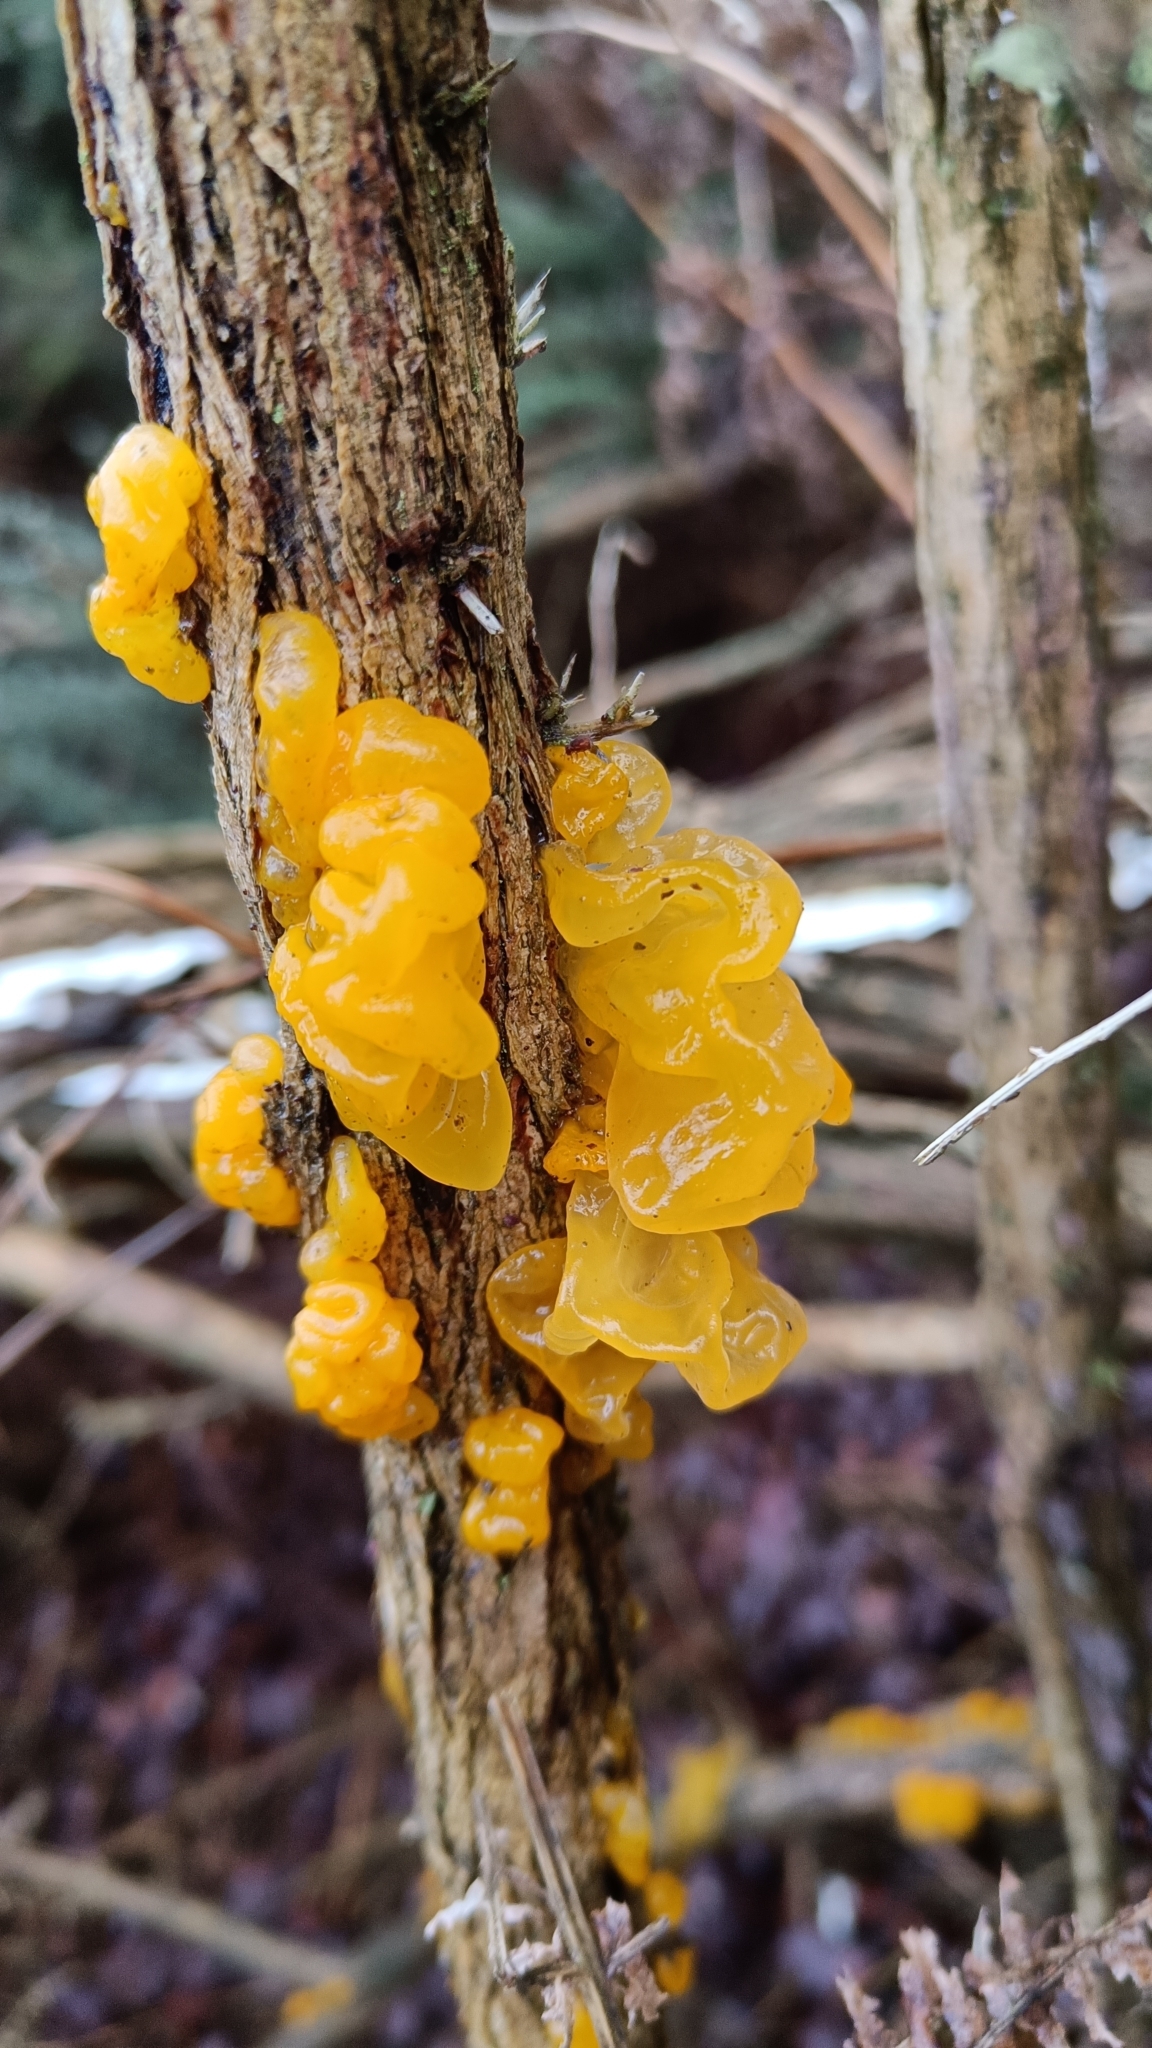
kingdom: Fungi
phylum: Basidiomycota
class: Tremellomycetes
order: Tremellales
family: Tremellaceae
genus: Tremella
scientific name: Tremella mesenterica
